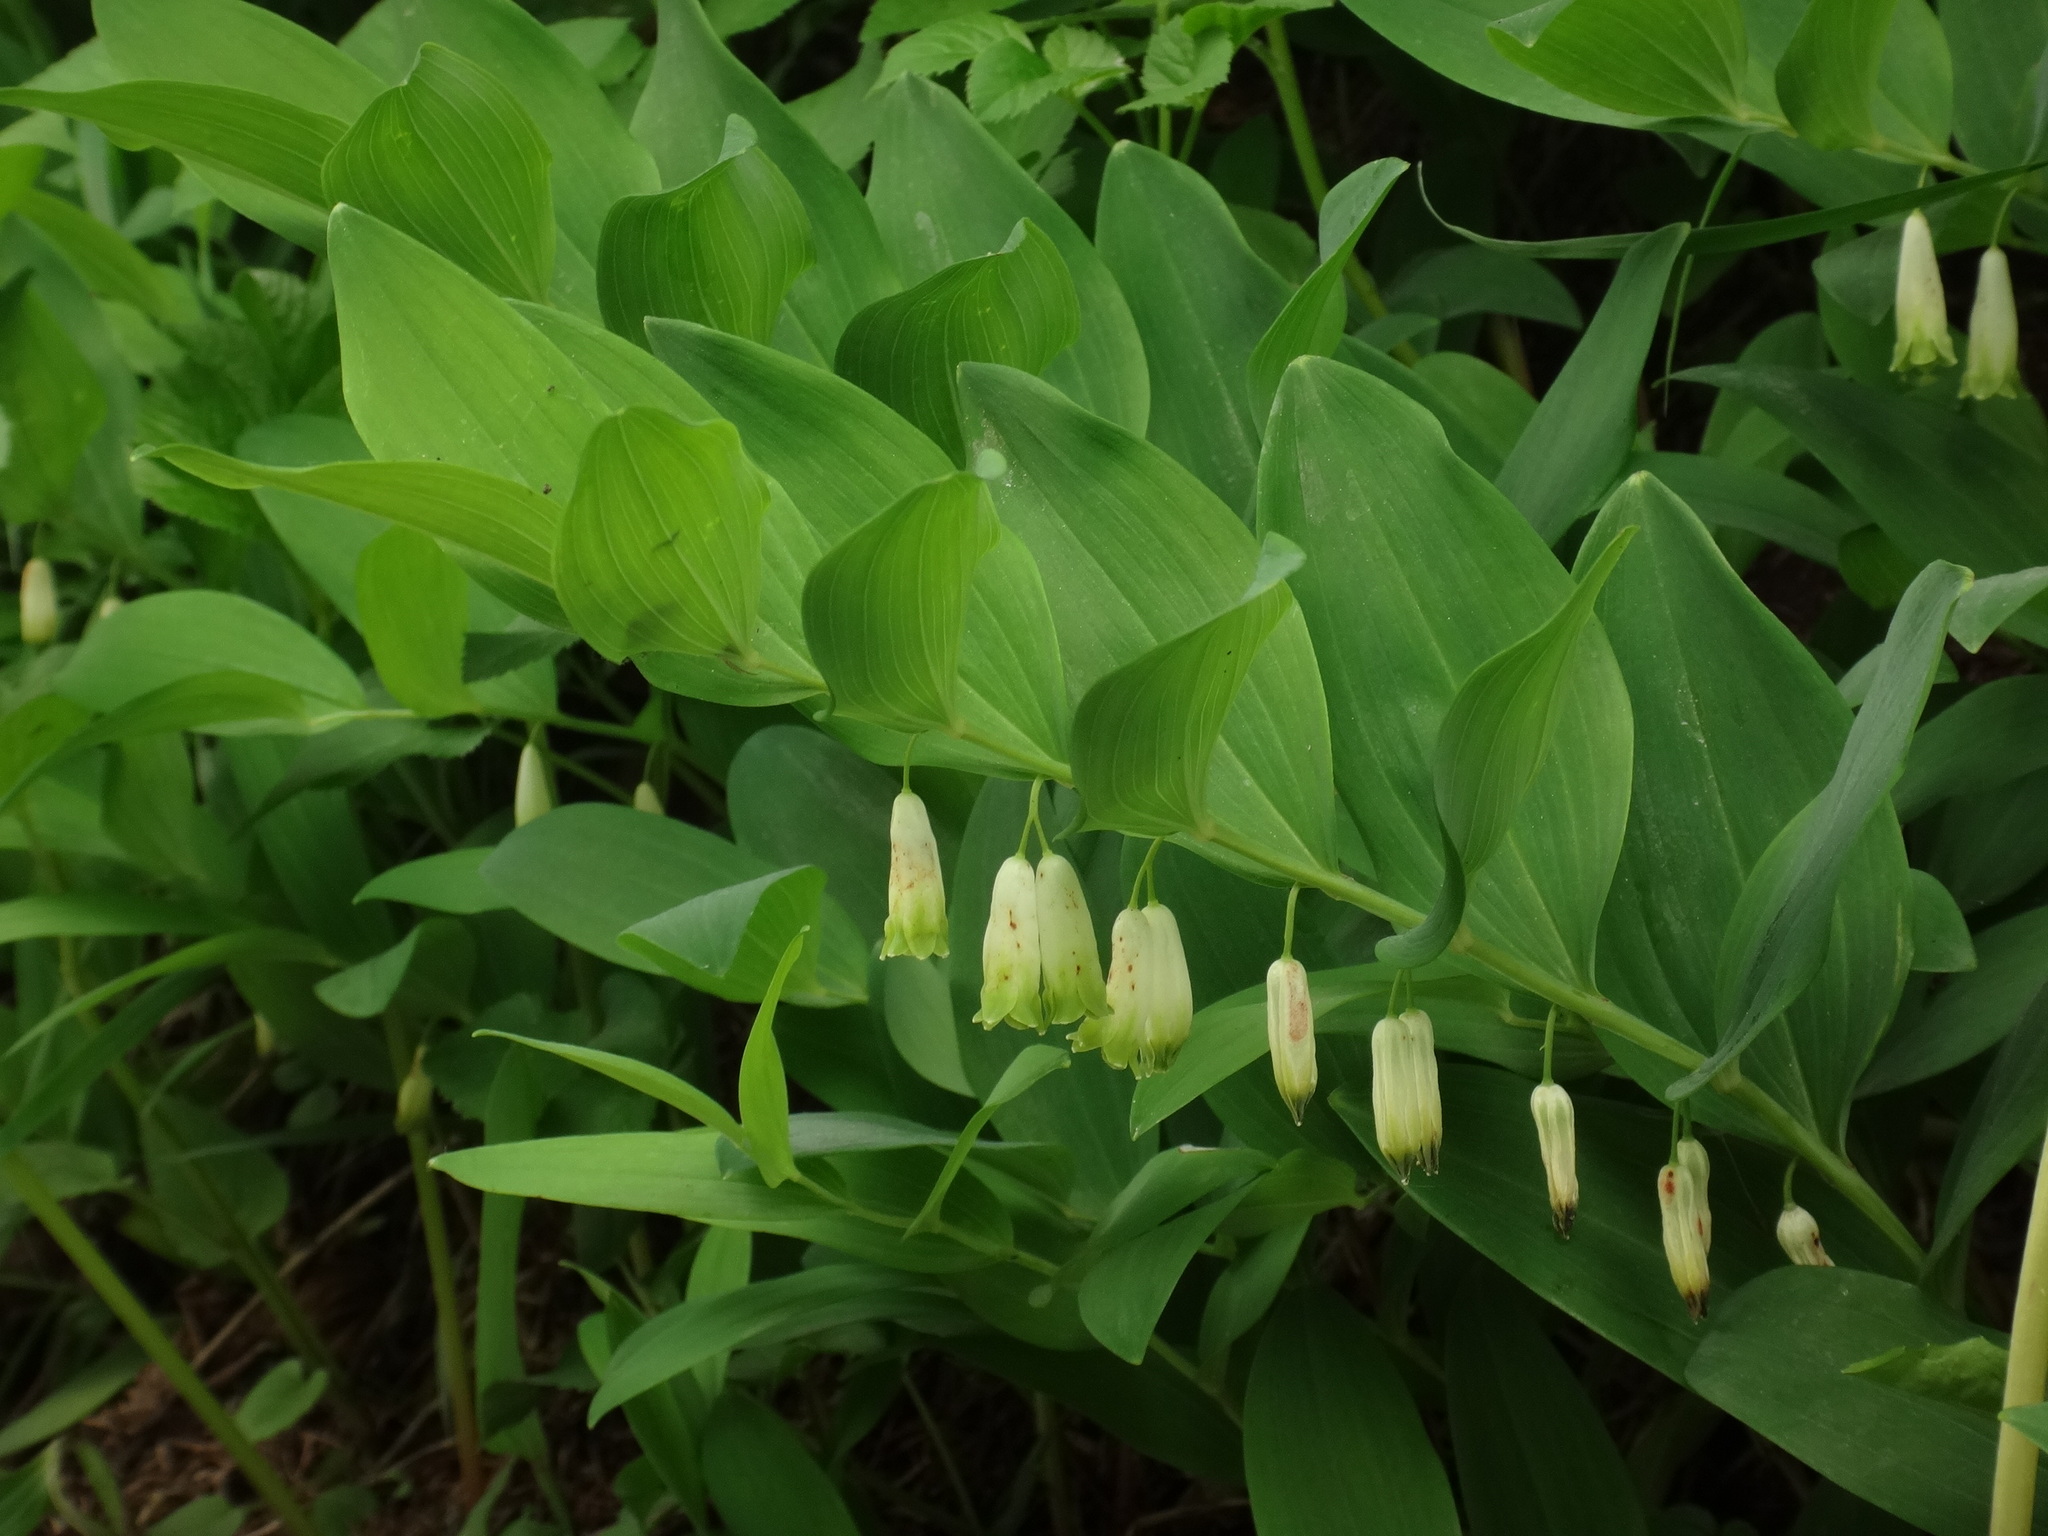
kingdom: Plantae
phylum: Tracheophyta
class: Liliopsida
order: Asparagales
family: Asparagaceae
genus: Polygonatum
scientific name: Polygonatum odoratum
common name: Angular solomon's-seal
